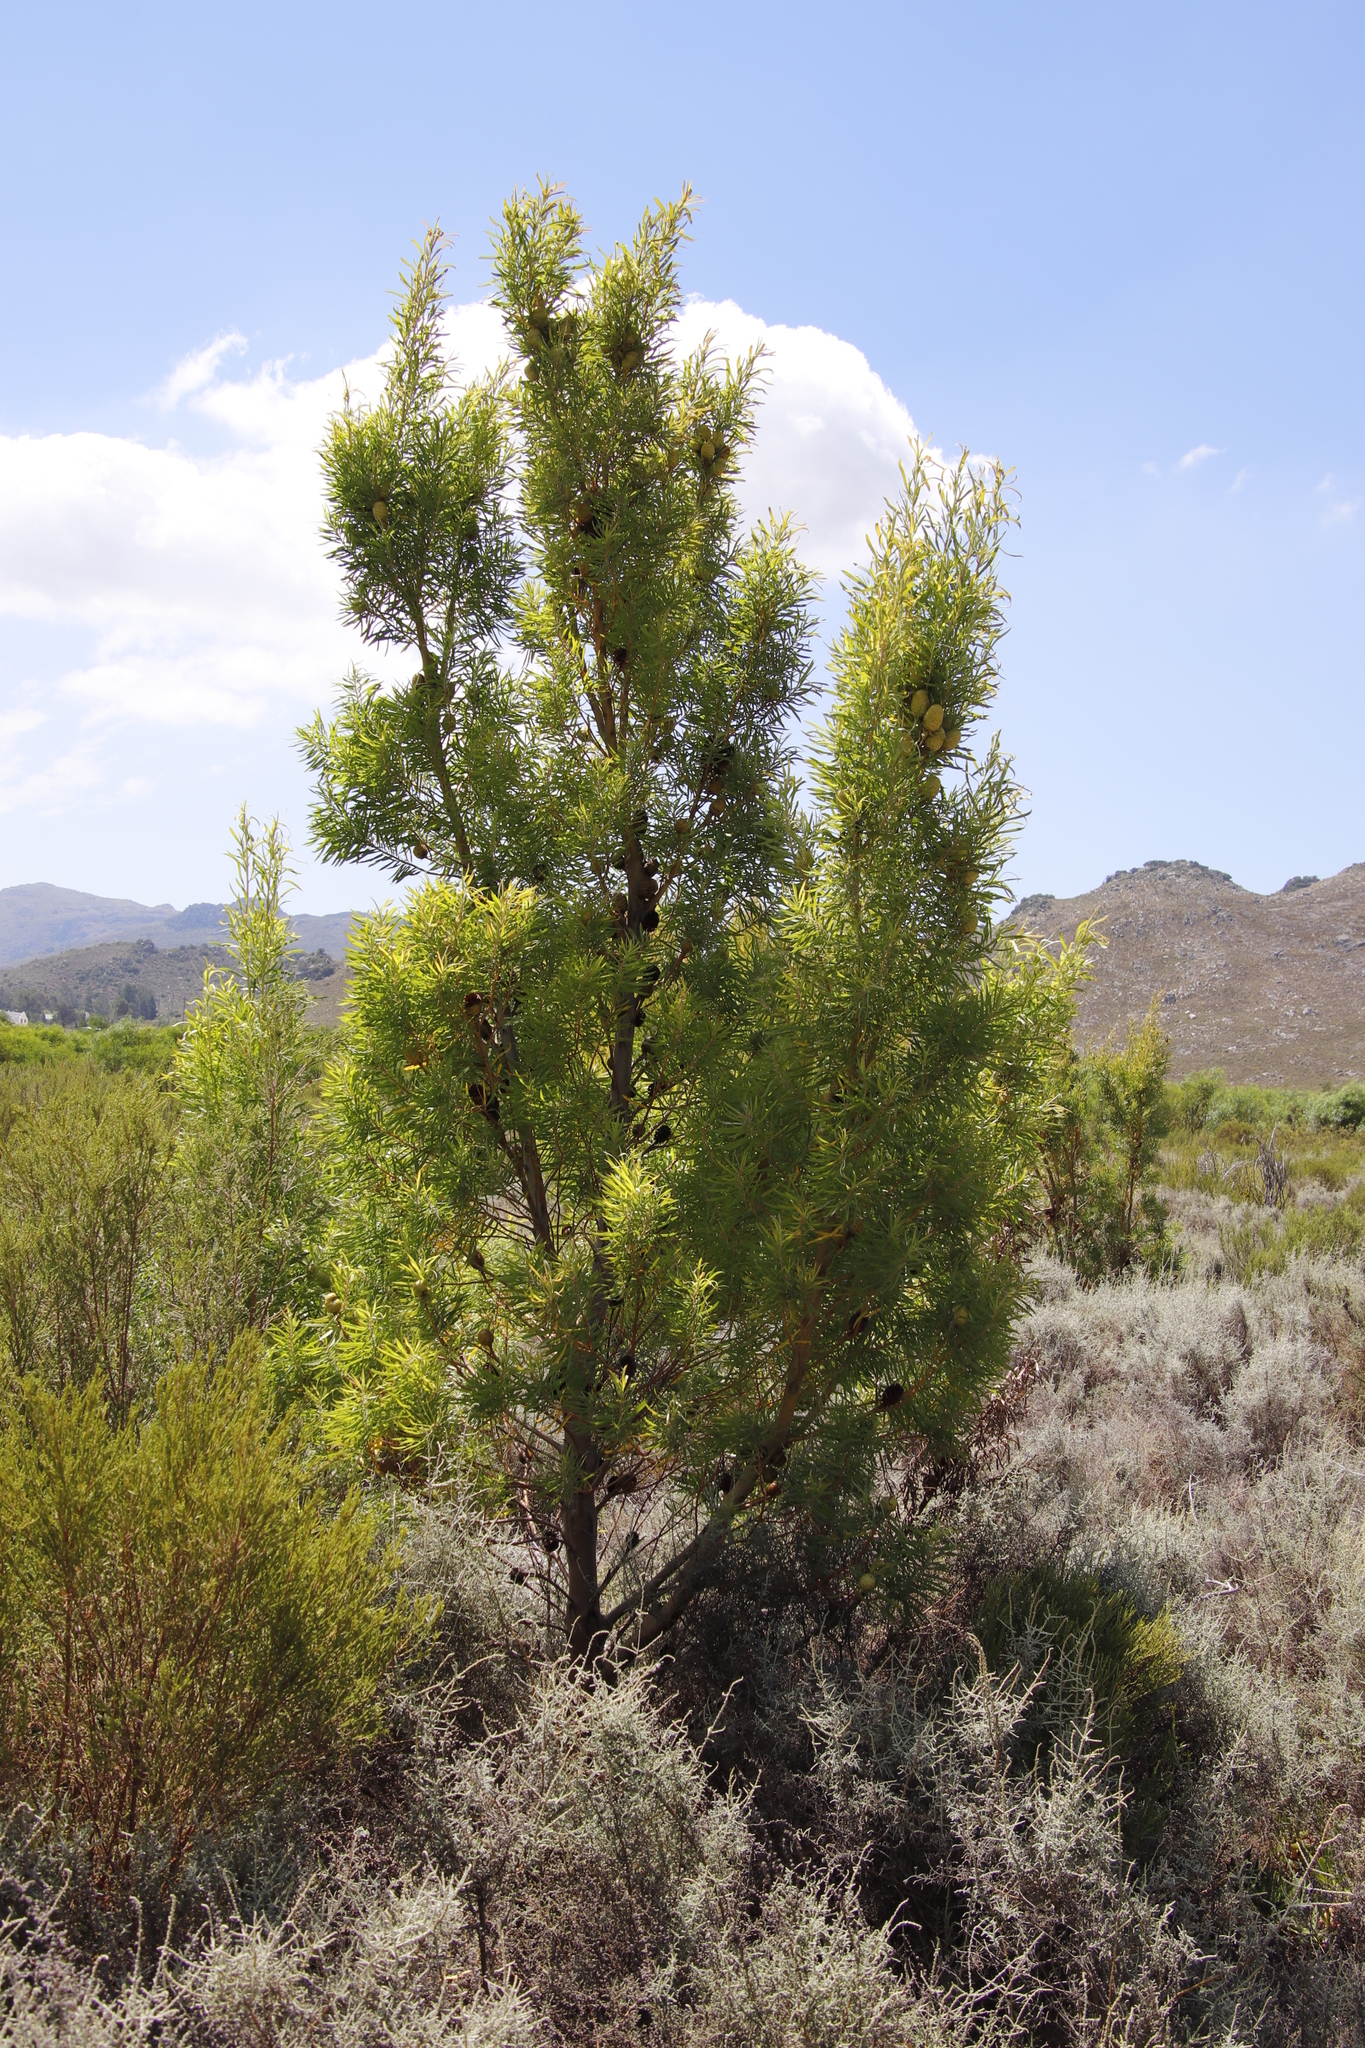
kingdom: Plantae
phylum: Tracheophyta
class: Magnoliopsida
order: Proteales
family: Proteaceae
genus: Leucadendron
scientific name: Leucadendron salicifolium
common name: Common stream conebush
